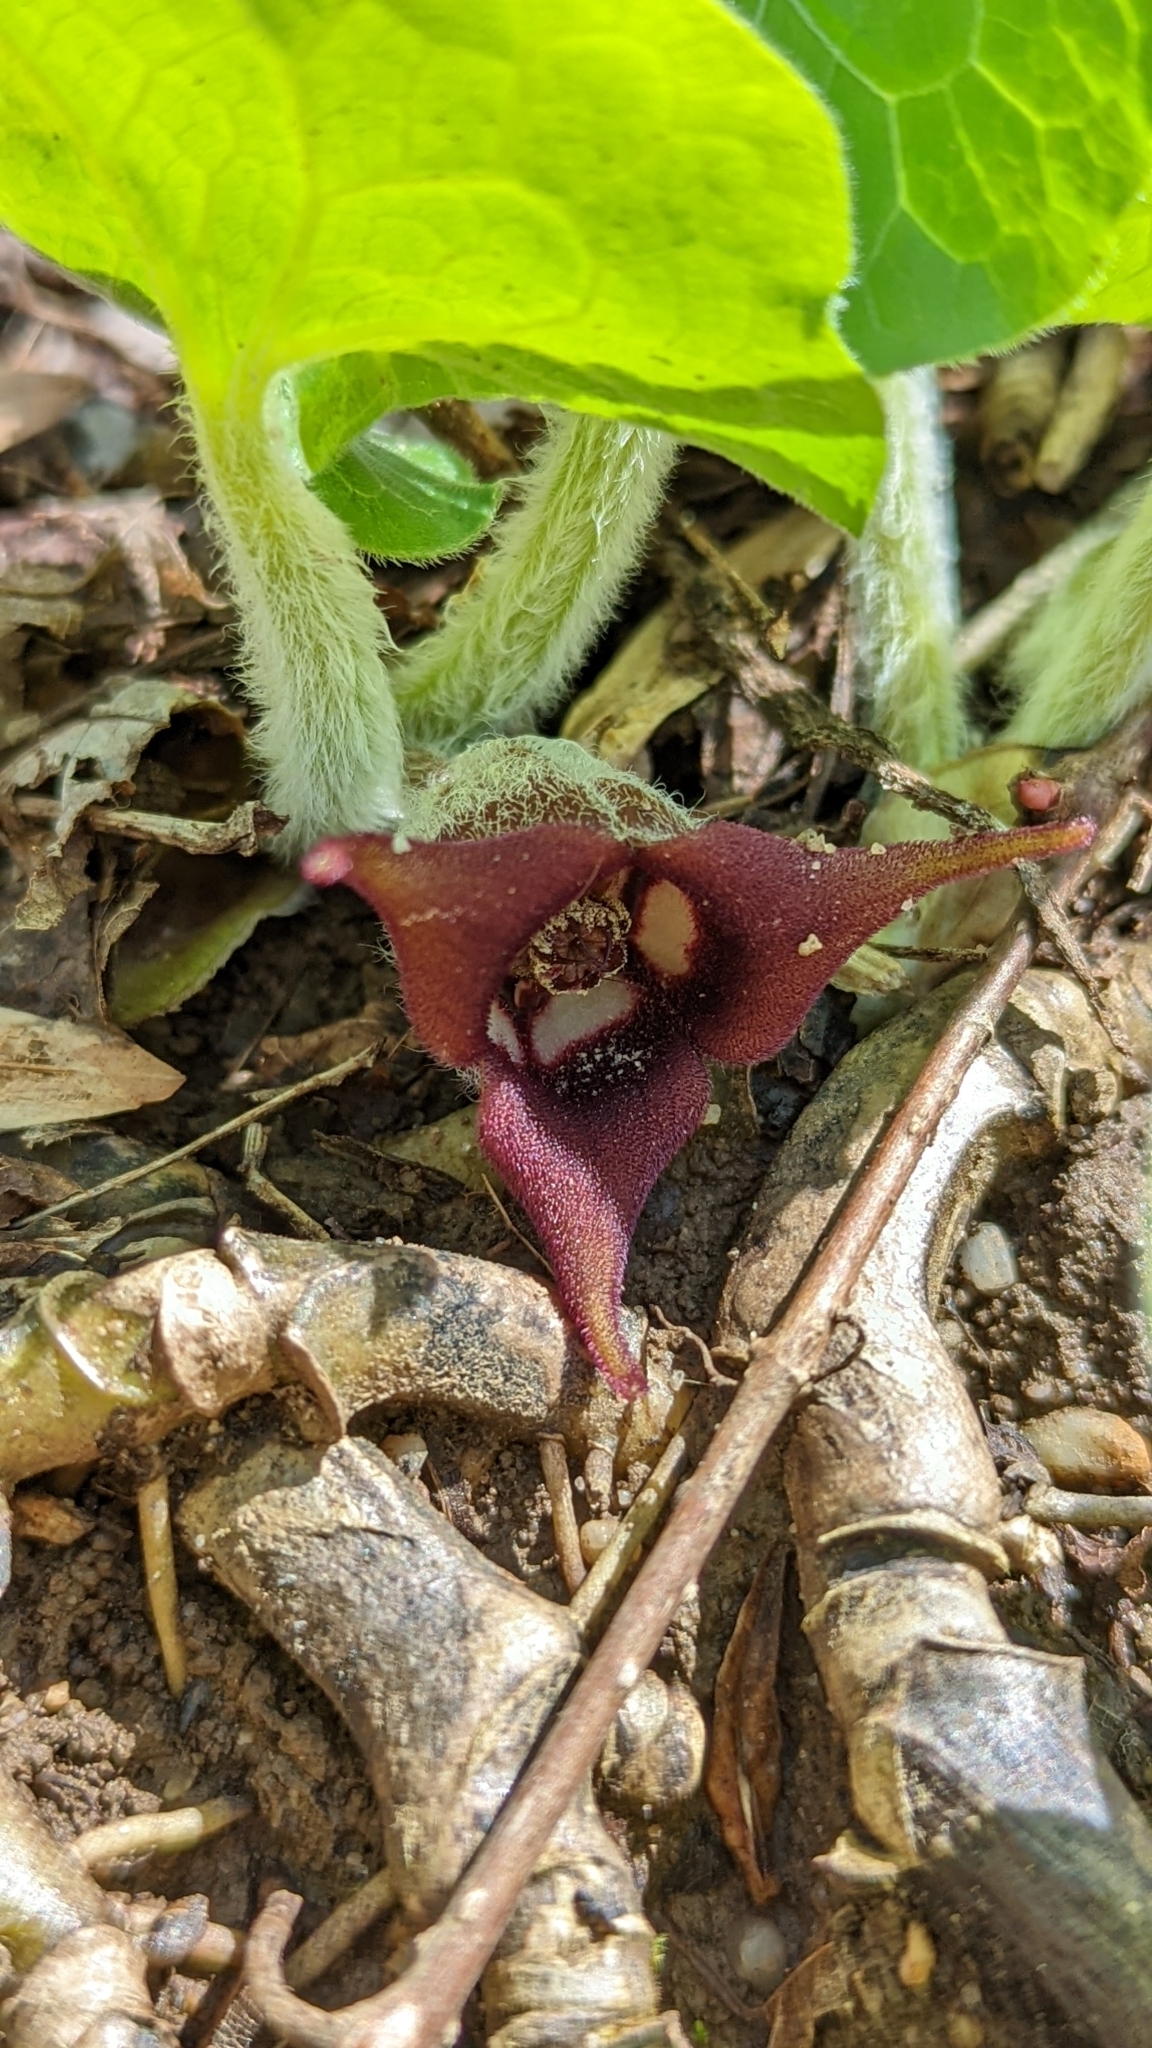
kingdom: Plantae
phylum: Tracheophyta
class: Magnoliopsida
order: Piperales
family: Aristolochiaceae
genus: Asarum
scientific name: Asarum canadense
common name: Wild ginger
